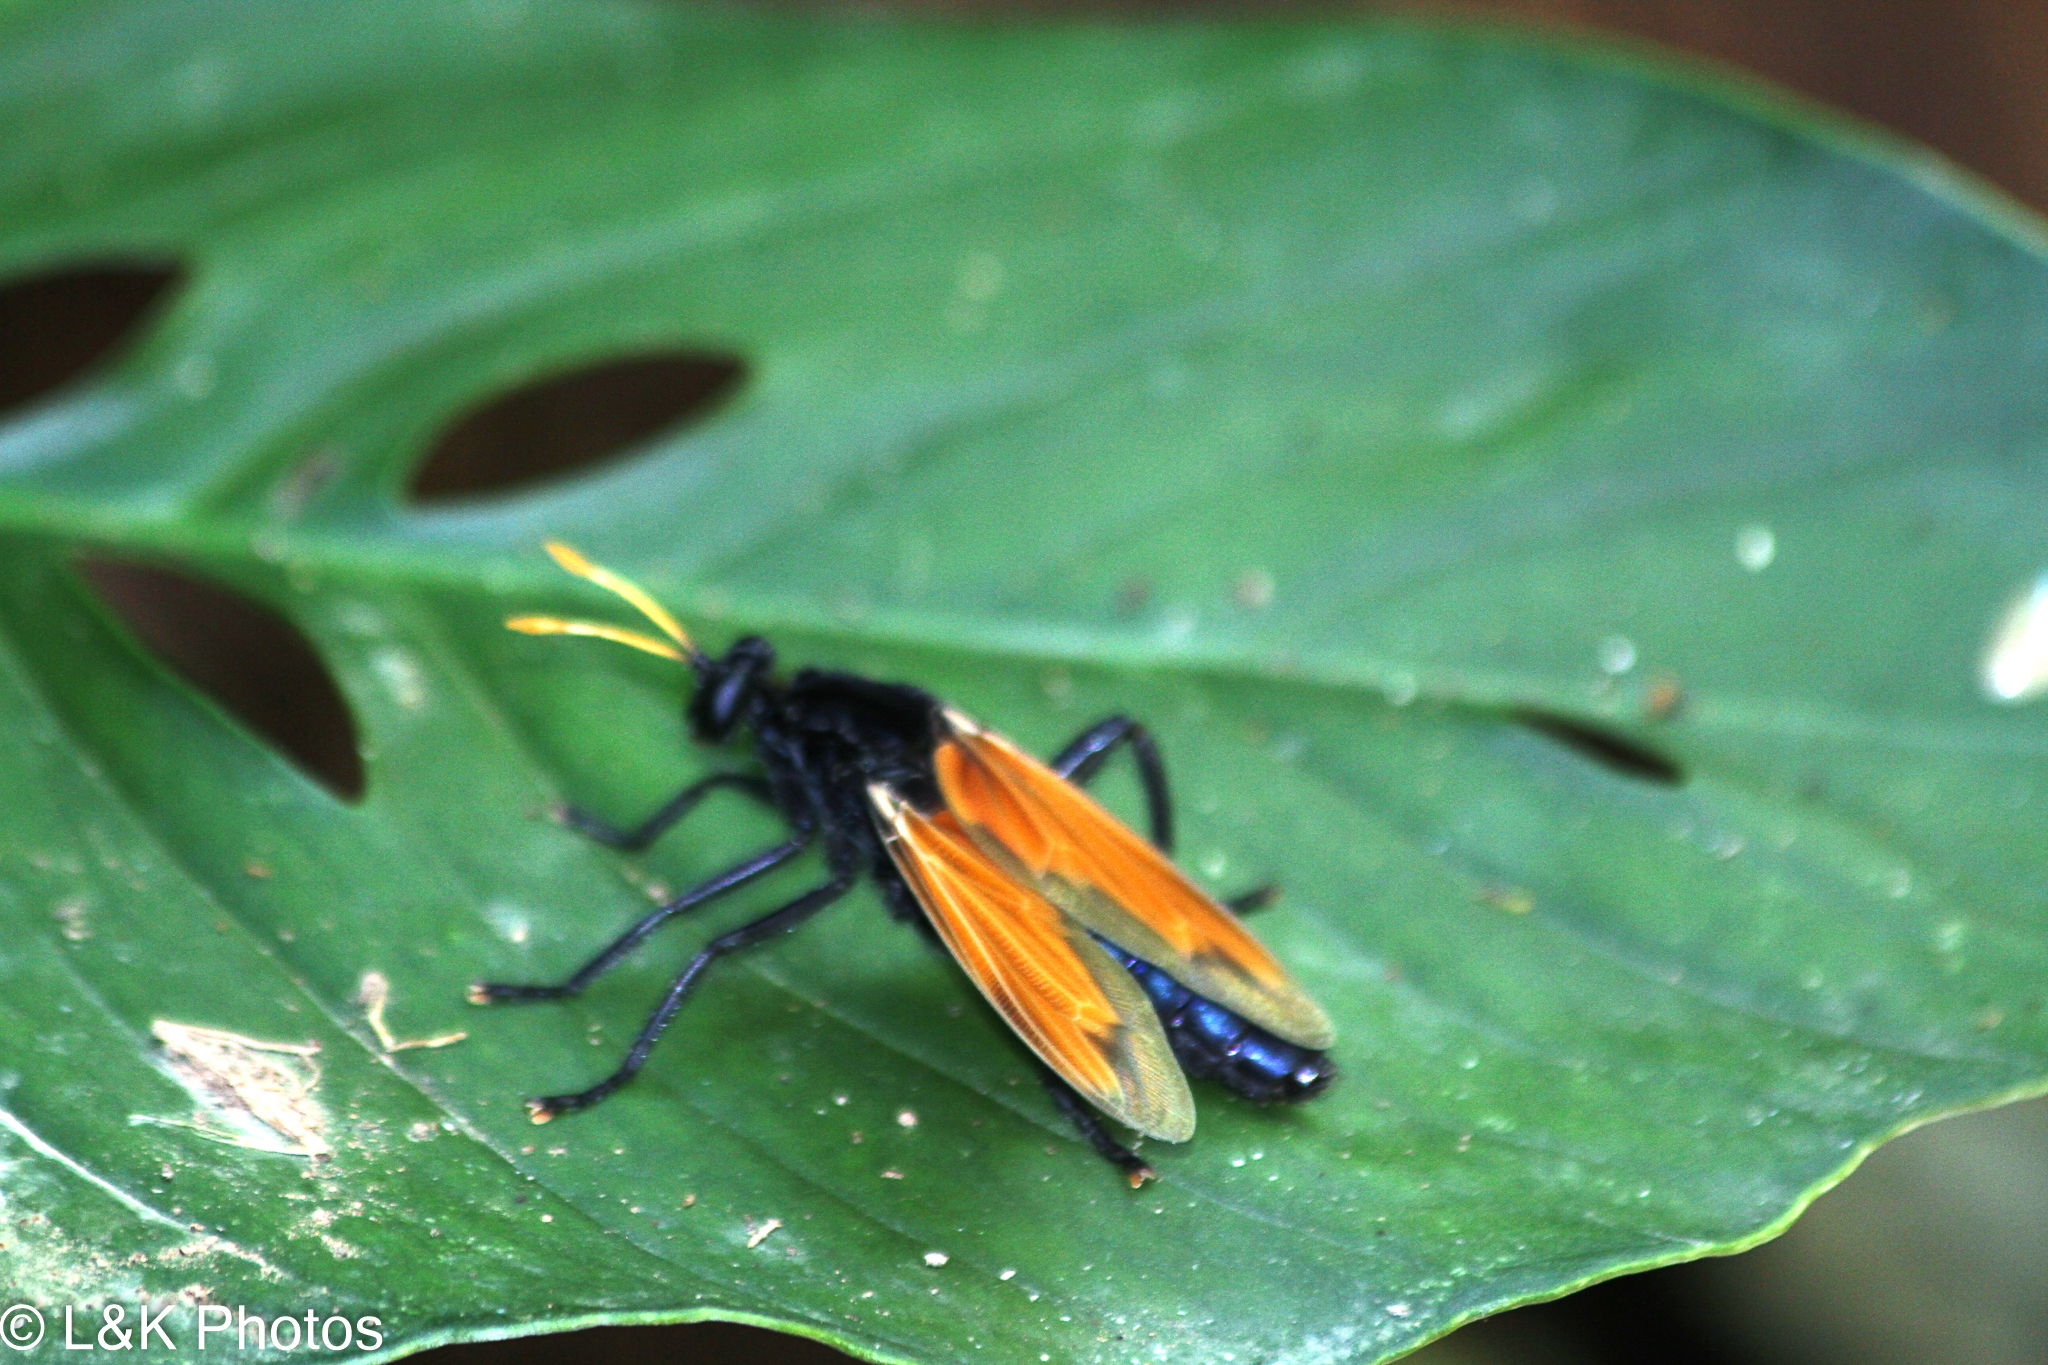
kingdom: Animalia
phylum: Arthropoda
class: Insecta
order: Diptera
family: Mydidae
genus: Mydas
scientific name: Mydas rubidapex
